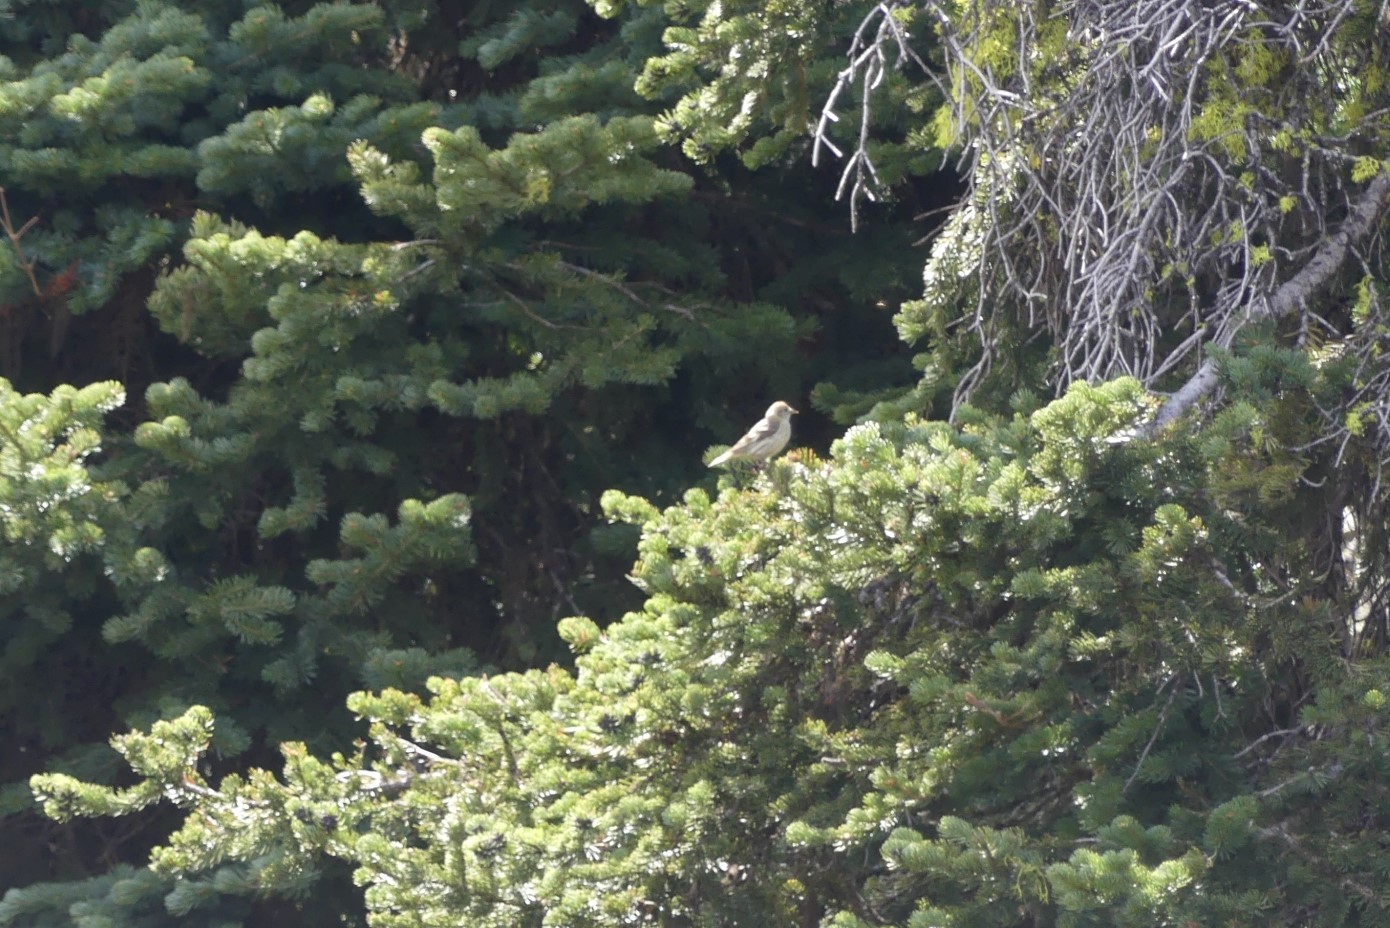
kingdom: Animalia
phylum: Chordata
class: Aves
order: Passeriformes
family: Fringillidae
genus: Spinus
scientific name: Spinus pinus
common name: Pine siskin
